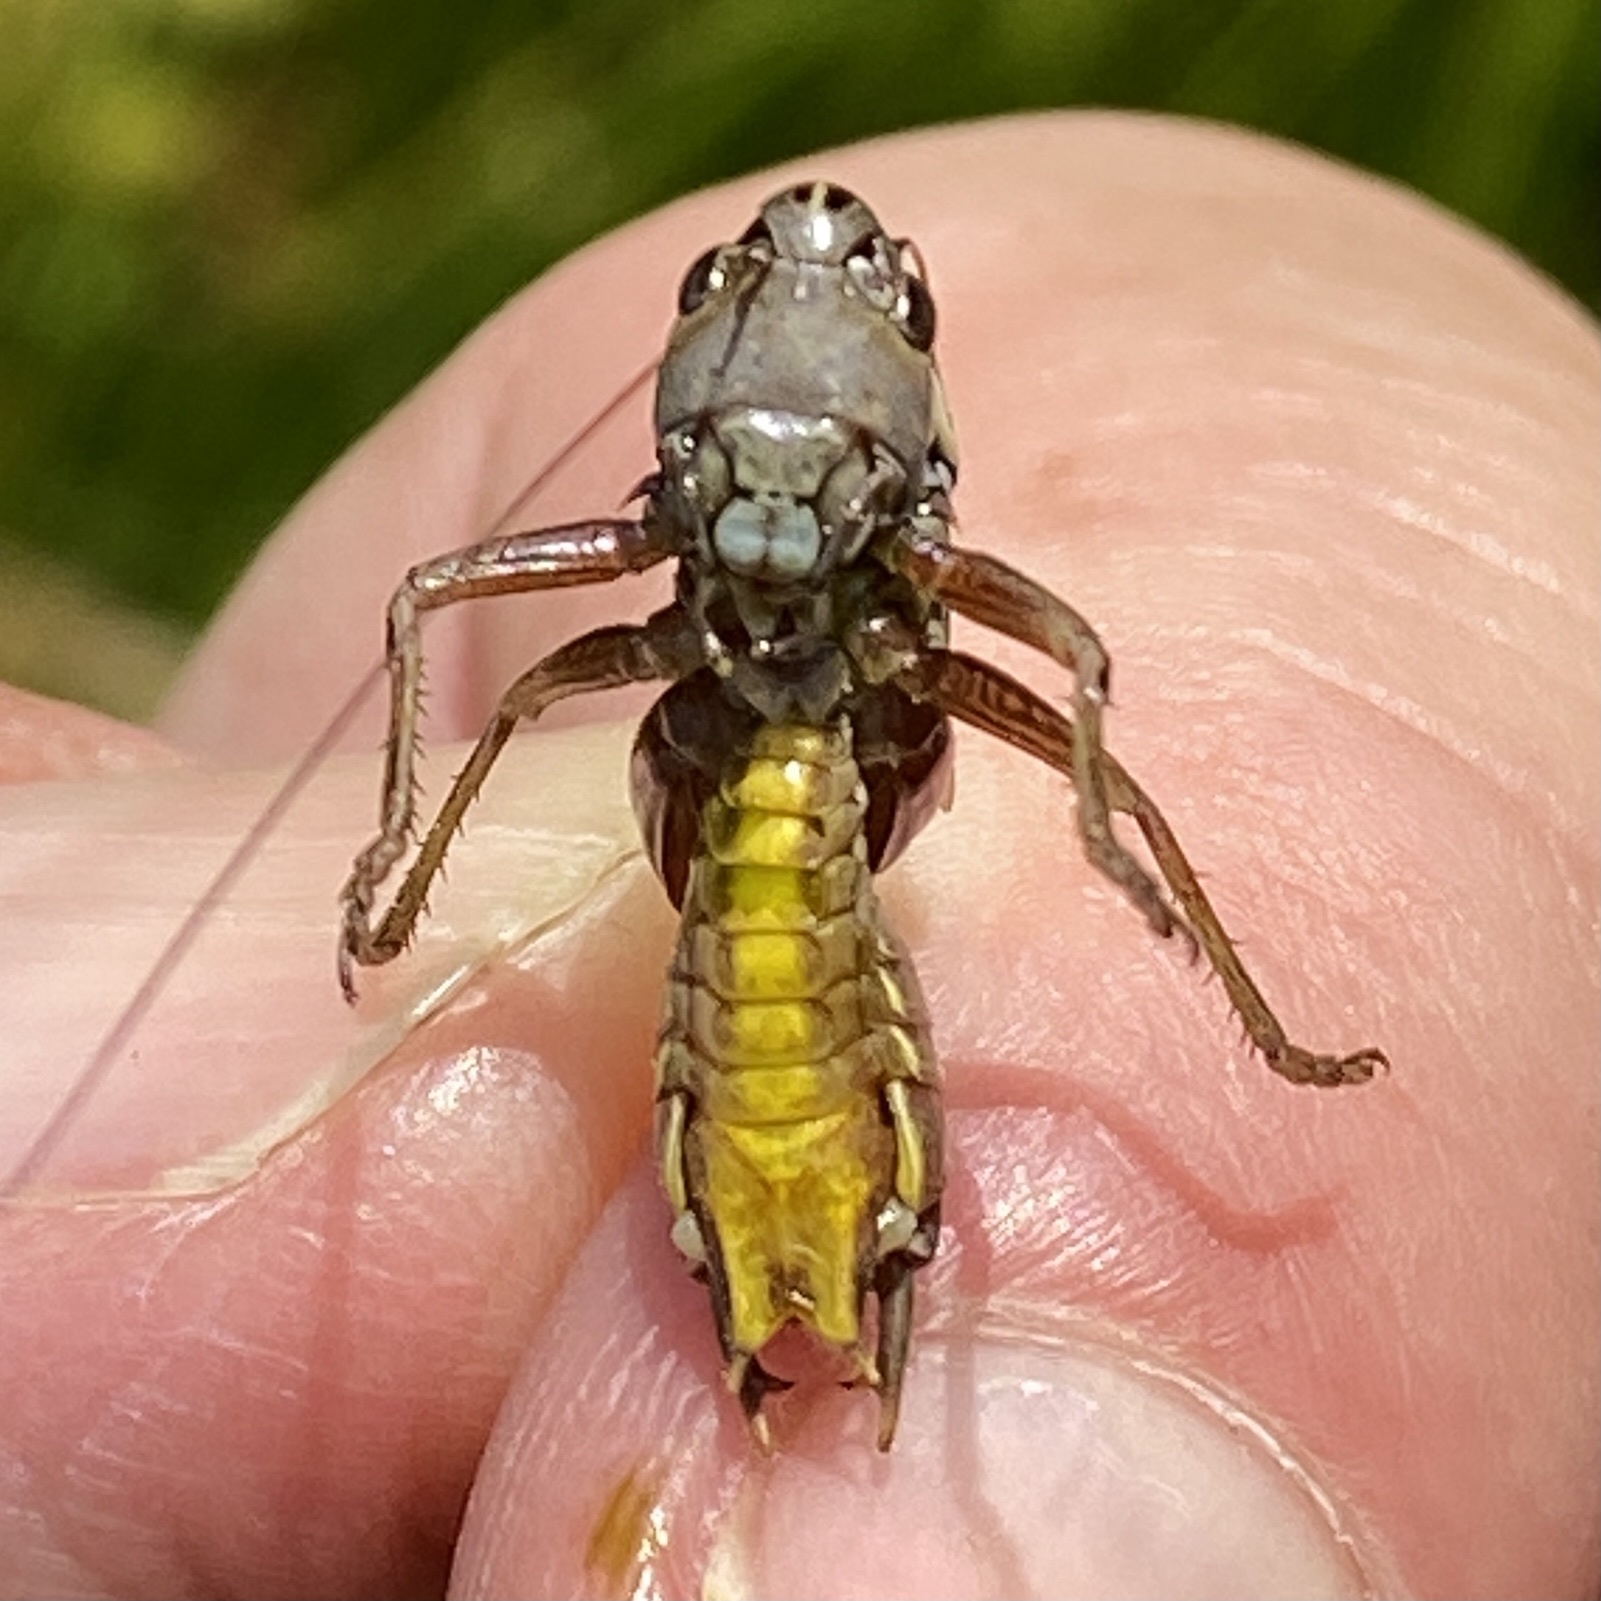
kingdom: Animalia
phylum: Arthropoda
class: Insecta
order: Orthoptera
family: Tettigoniidae
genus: Roeseliana
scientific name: Roeseliana roeselii
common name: Roesel's bush cricket
